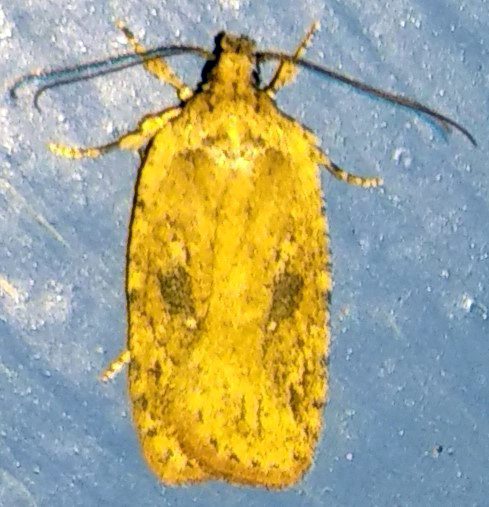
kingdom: Animalia
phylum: Arthropoda
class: Insecta
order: Lepidoptera
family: Depressariidae
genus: Agonopterix
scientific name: Agonopterix pulvipennella
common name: Goldenrod leafffolder
